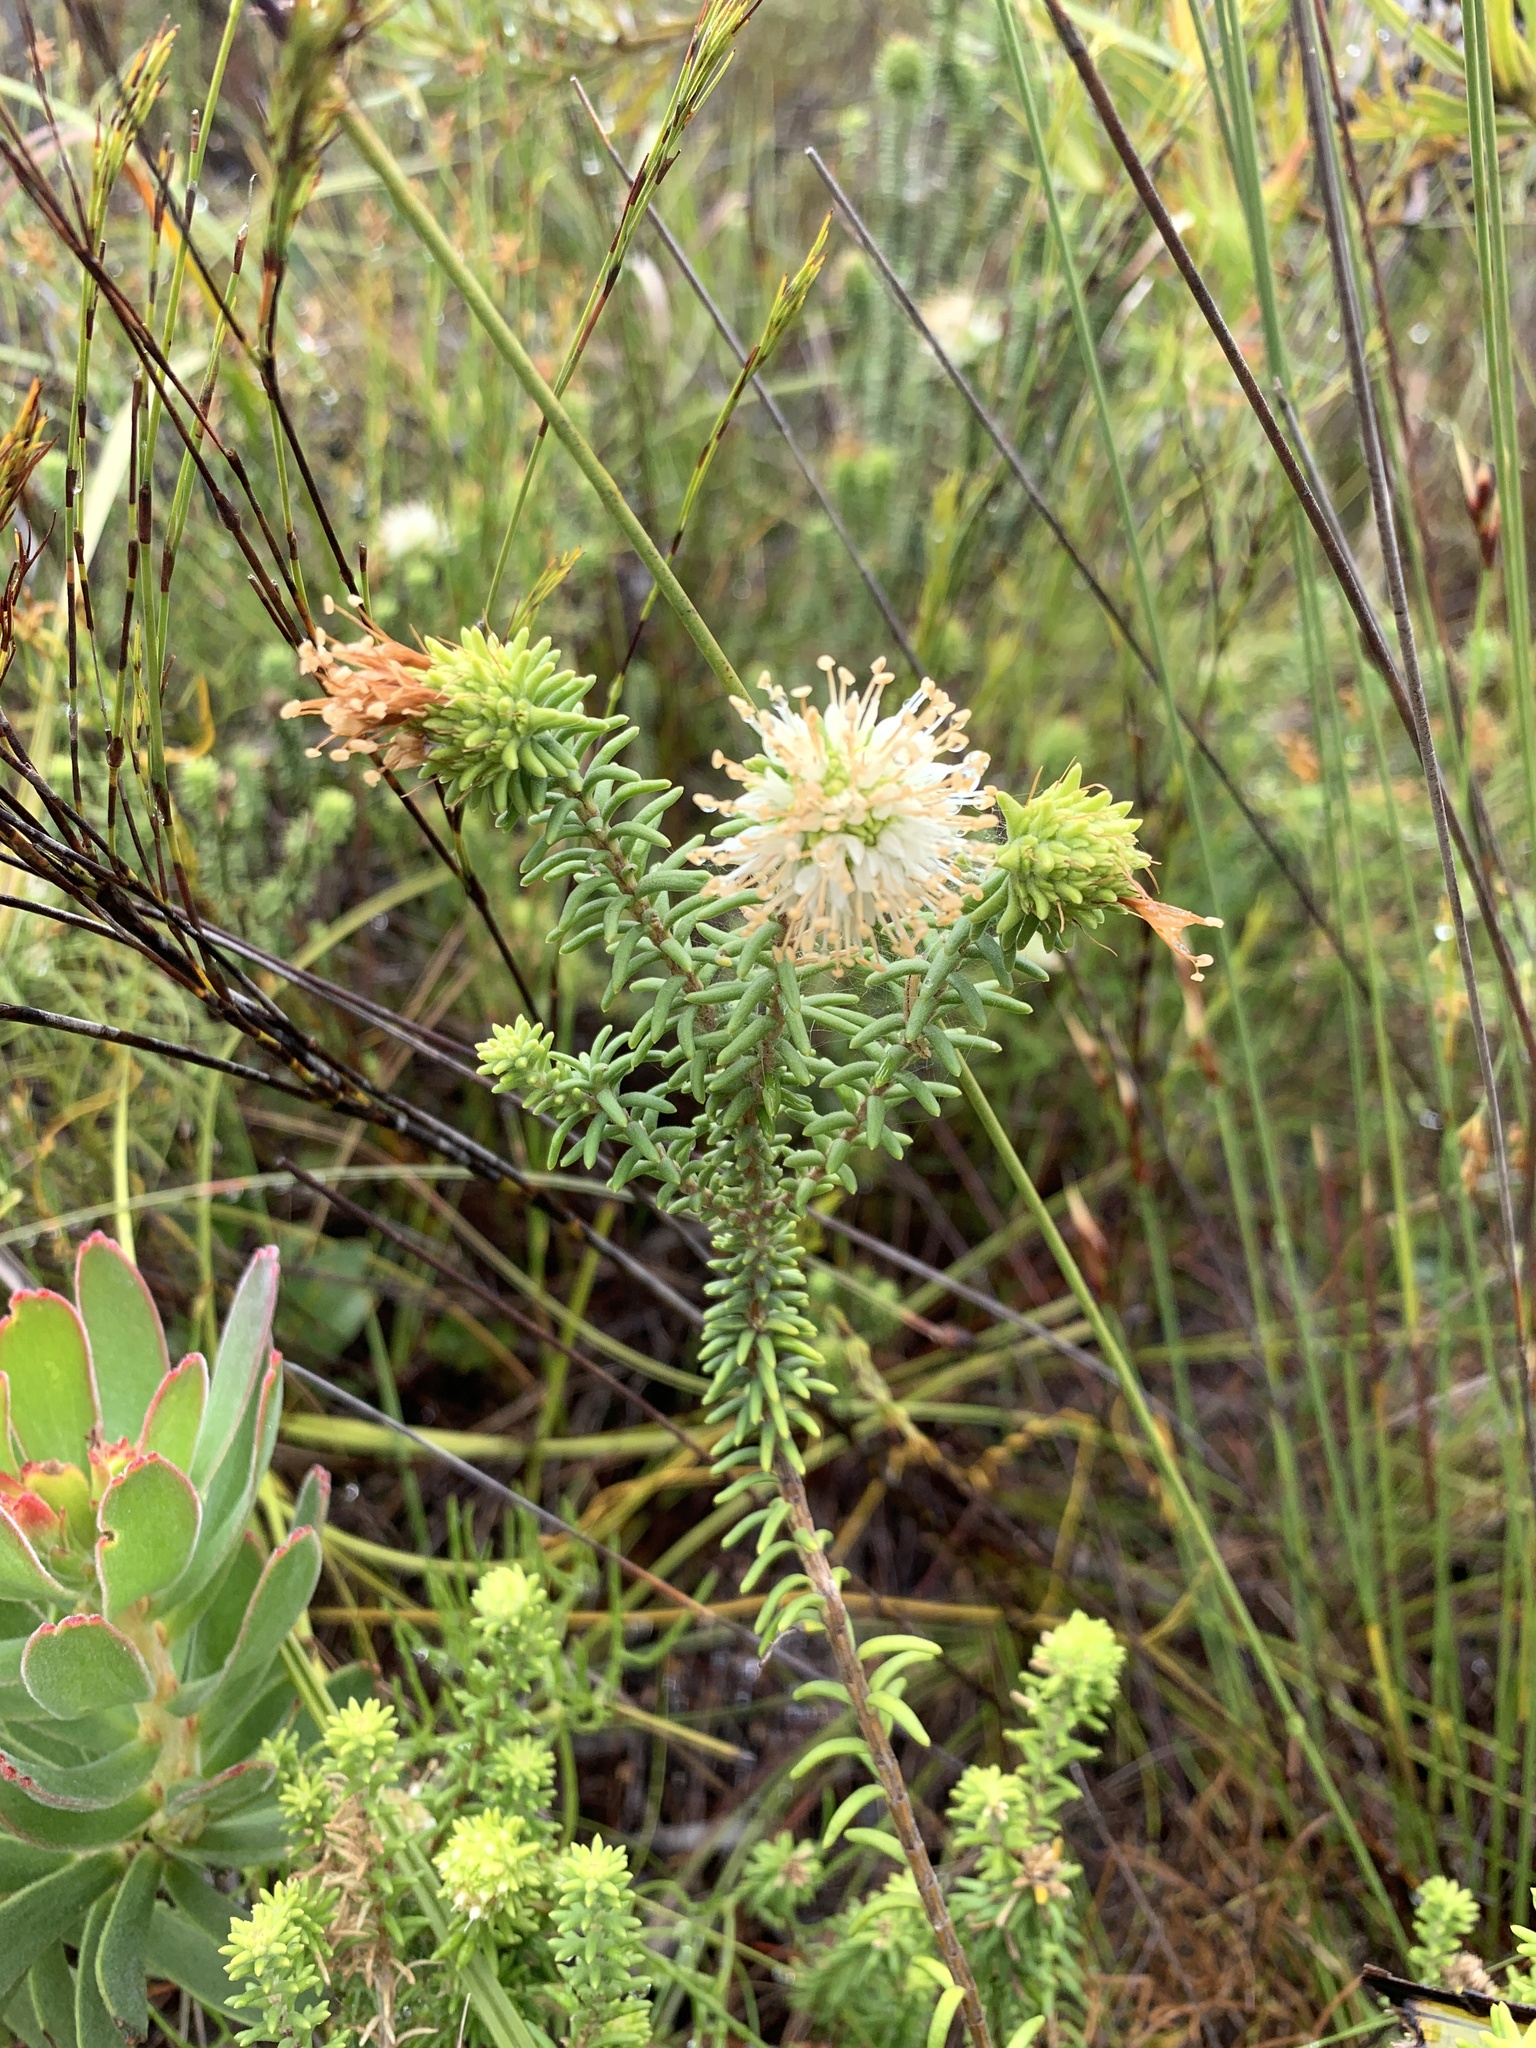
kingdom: Plantae
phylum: Tracheophyta
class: Magnoliopsida
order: Lamiales
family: Stilbaceae
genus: Campylostachys
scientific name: Campylostachys cernua
